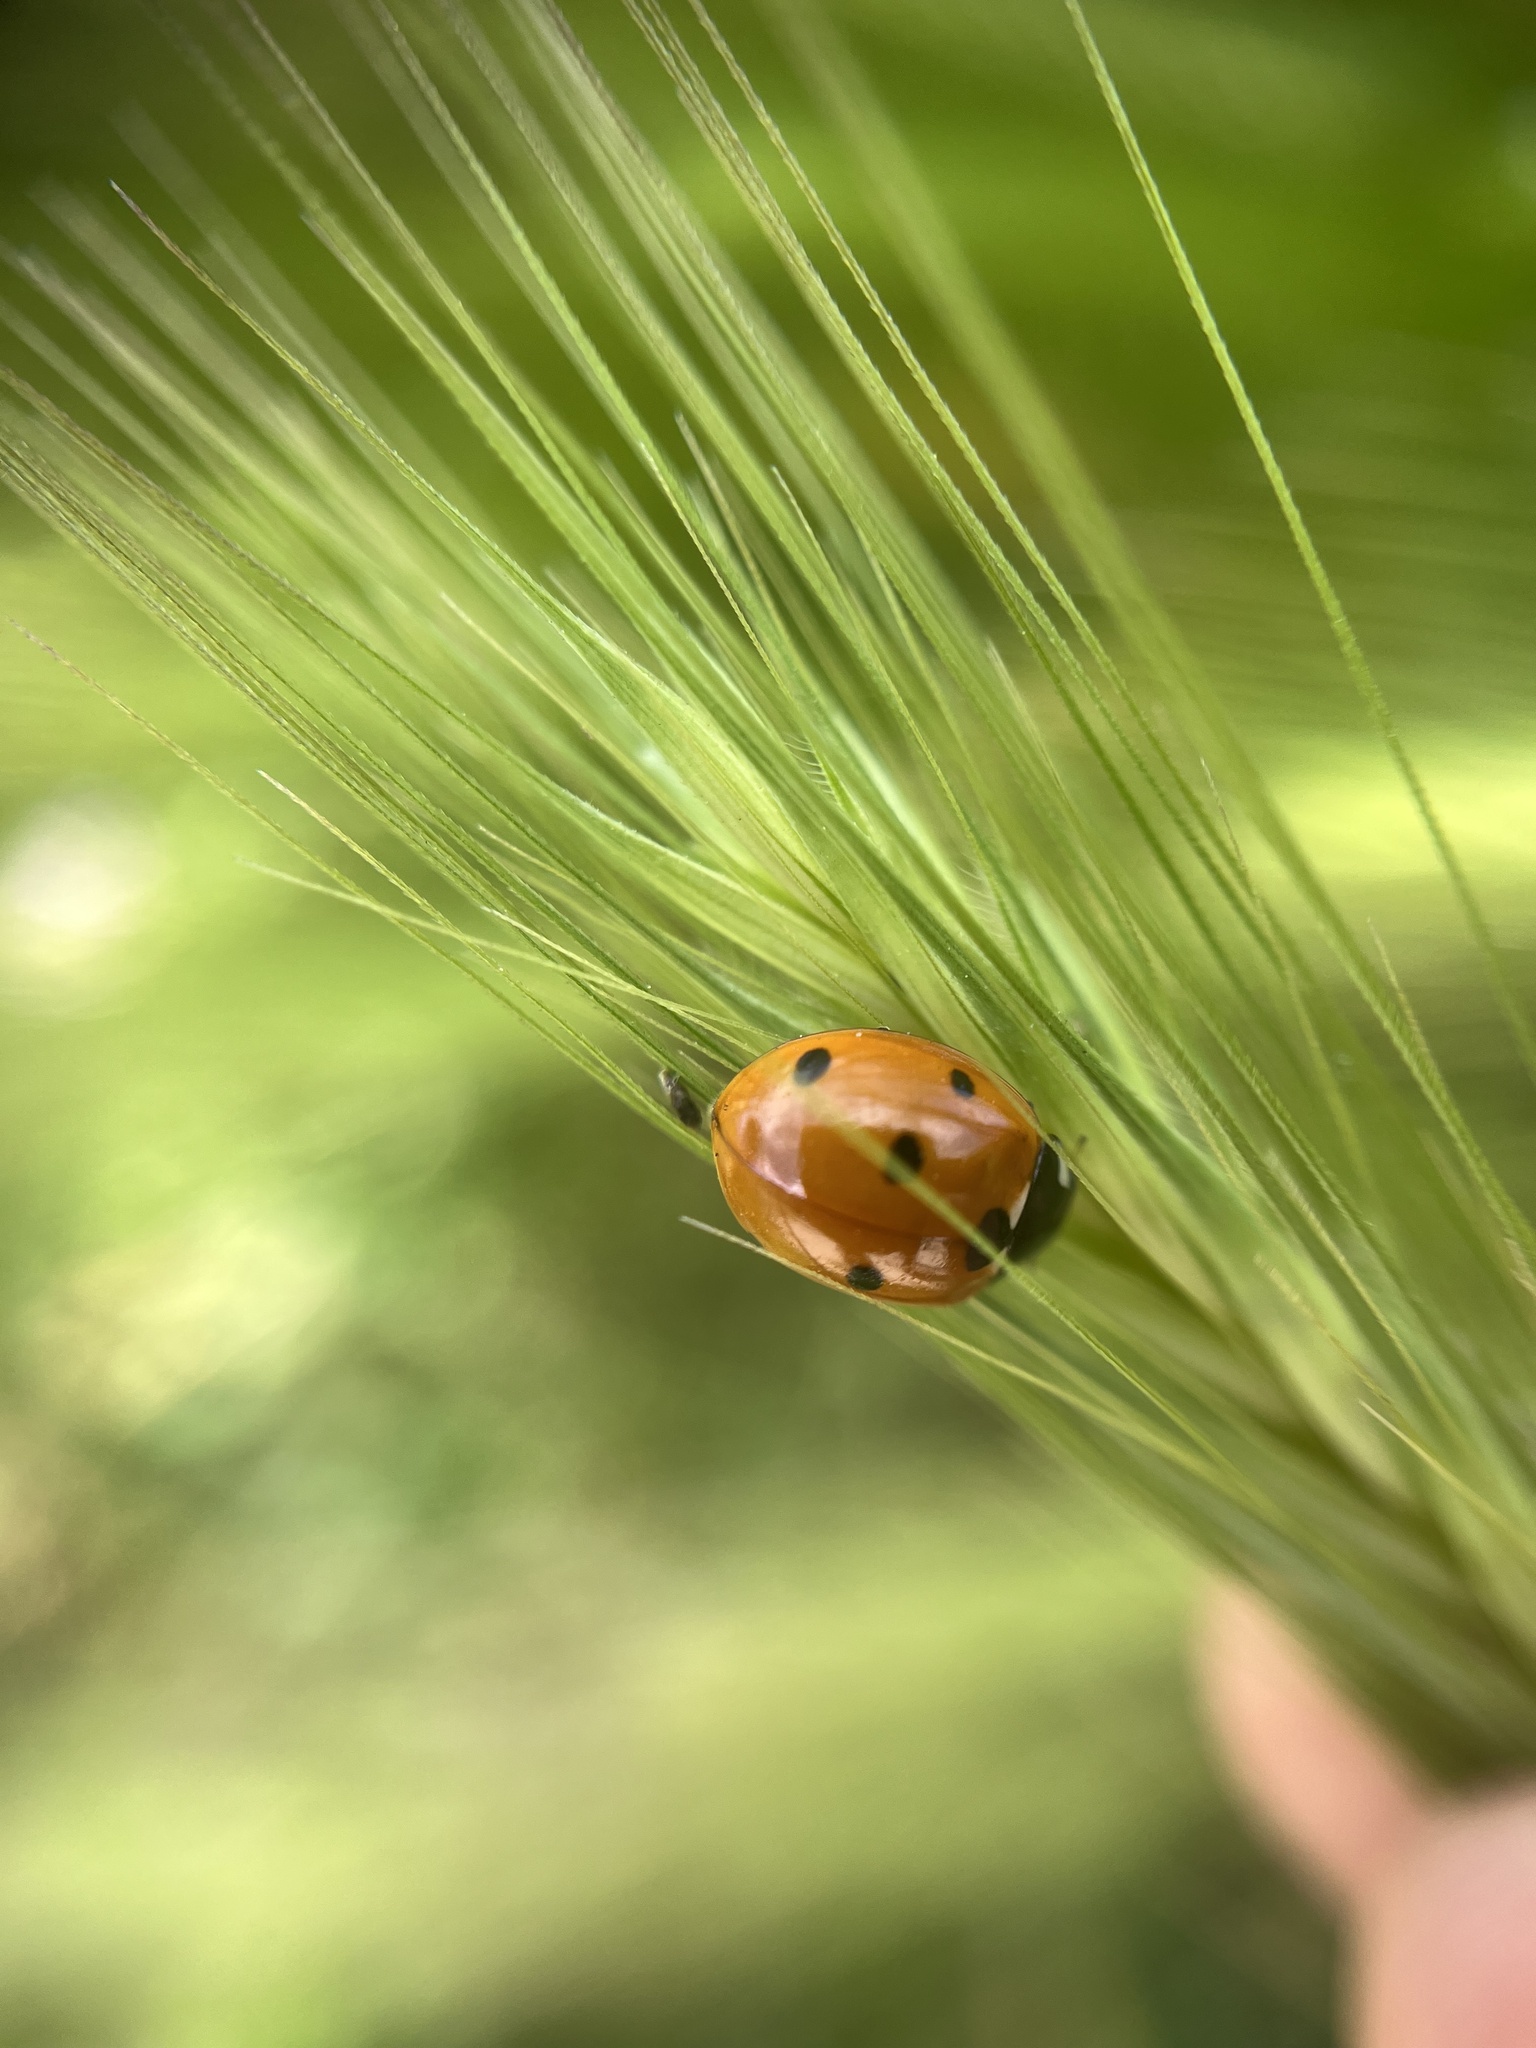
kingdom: Animalia
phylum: Arthropoda
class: Insecta
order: Coleoptera
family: Coccinellidae
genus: Coccinella
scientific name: Coccinella septempunctata
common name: Sevenspotted lady beetle
